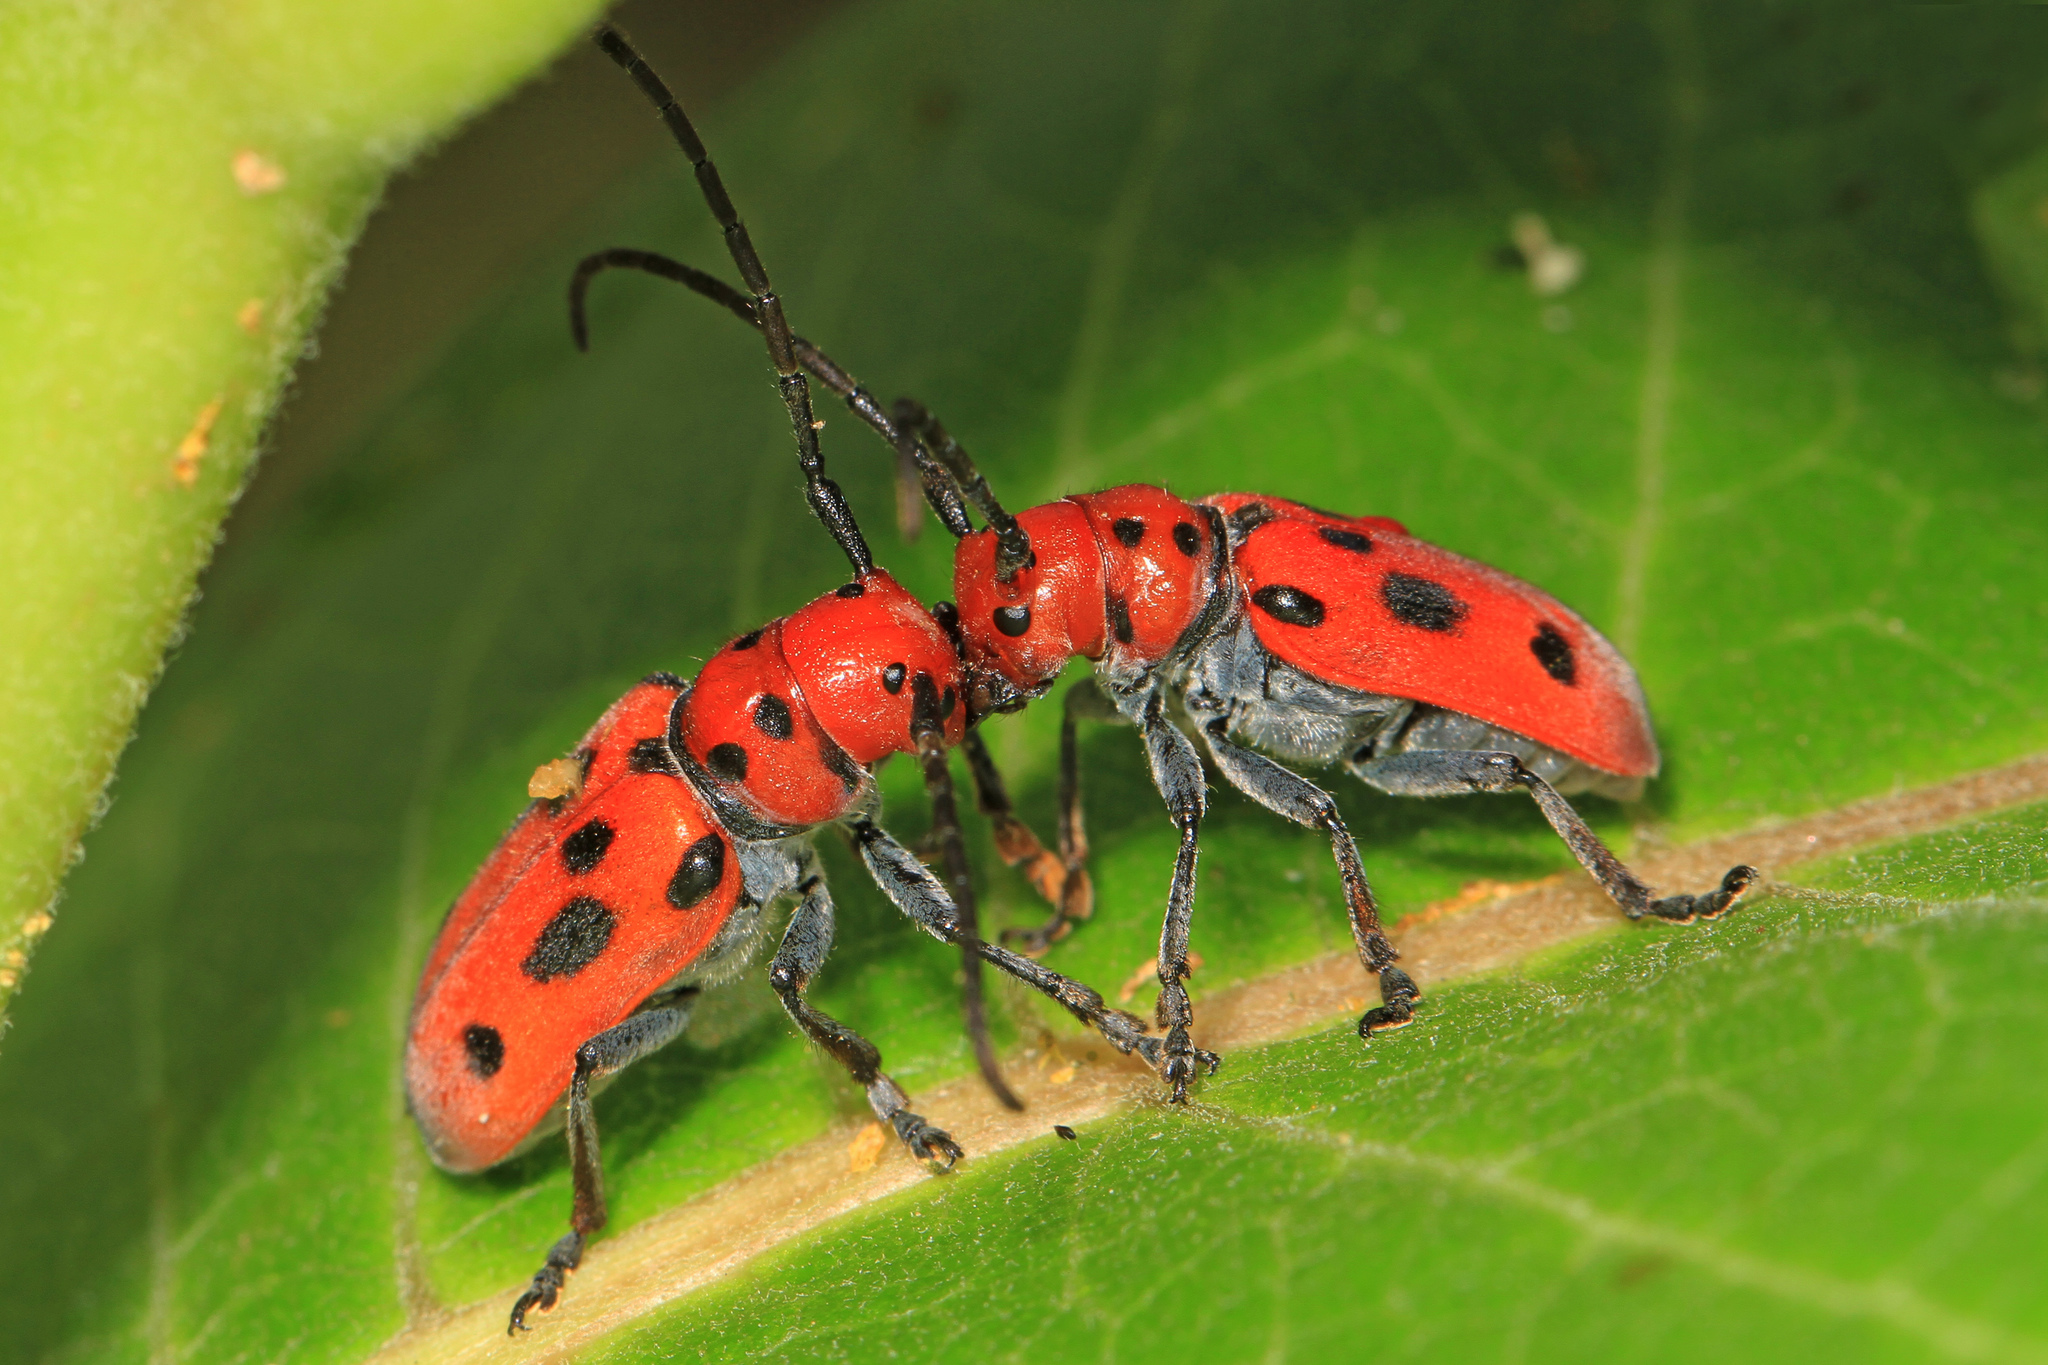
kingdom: Animalia
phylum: Arthropoda
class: Insecta
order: Coleoptera
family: Cerambycidae
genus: Tetraopes
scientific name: Tetraopes tetrophthalmus
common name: Red milkweed beetle
